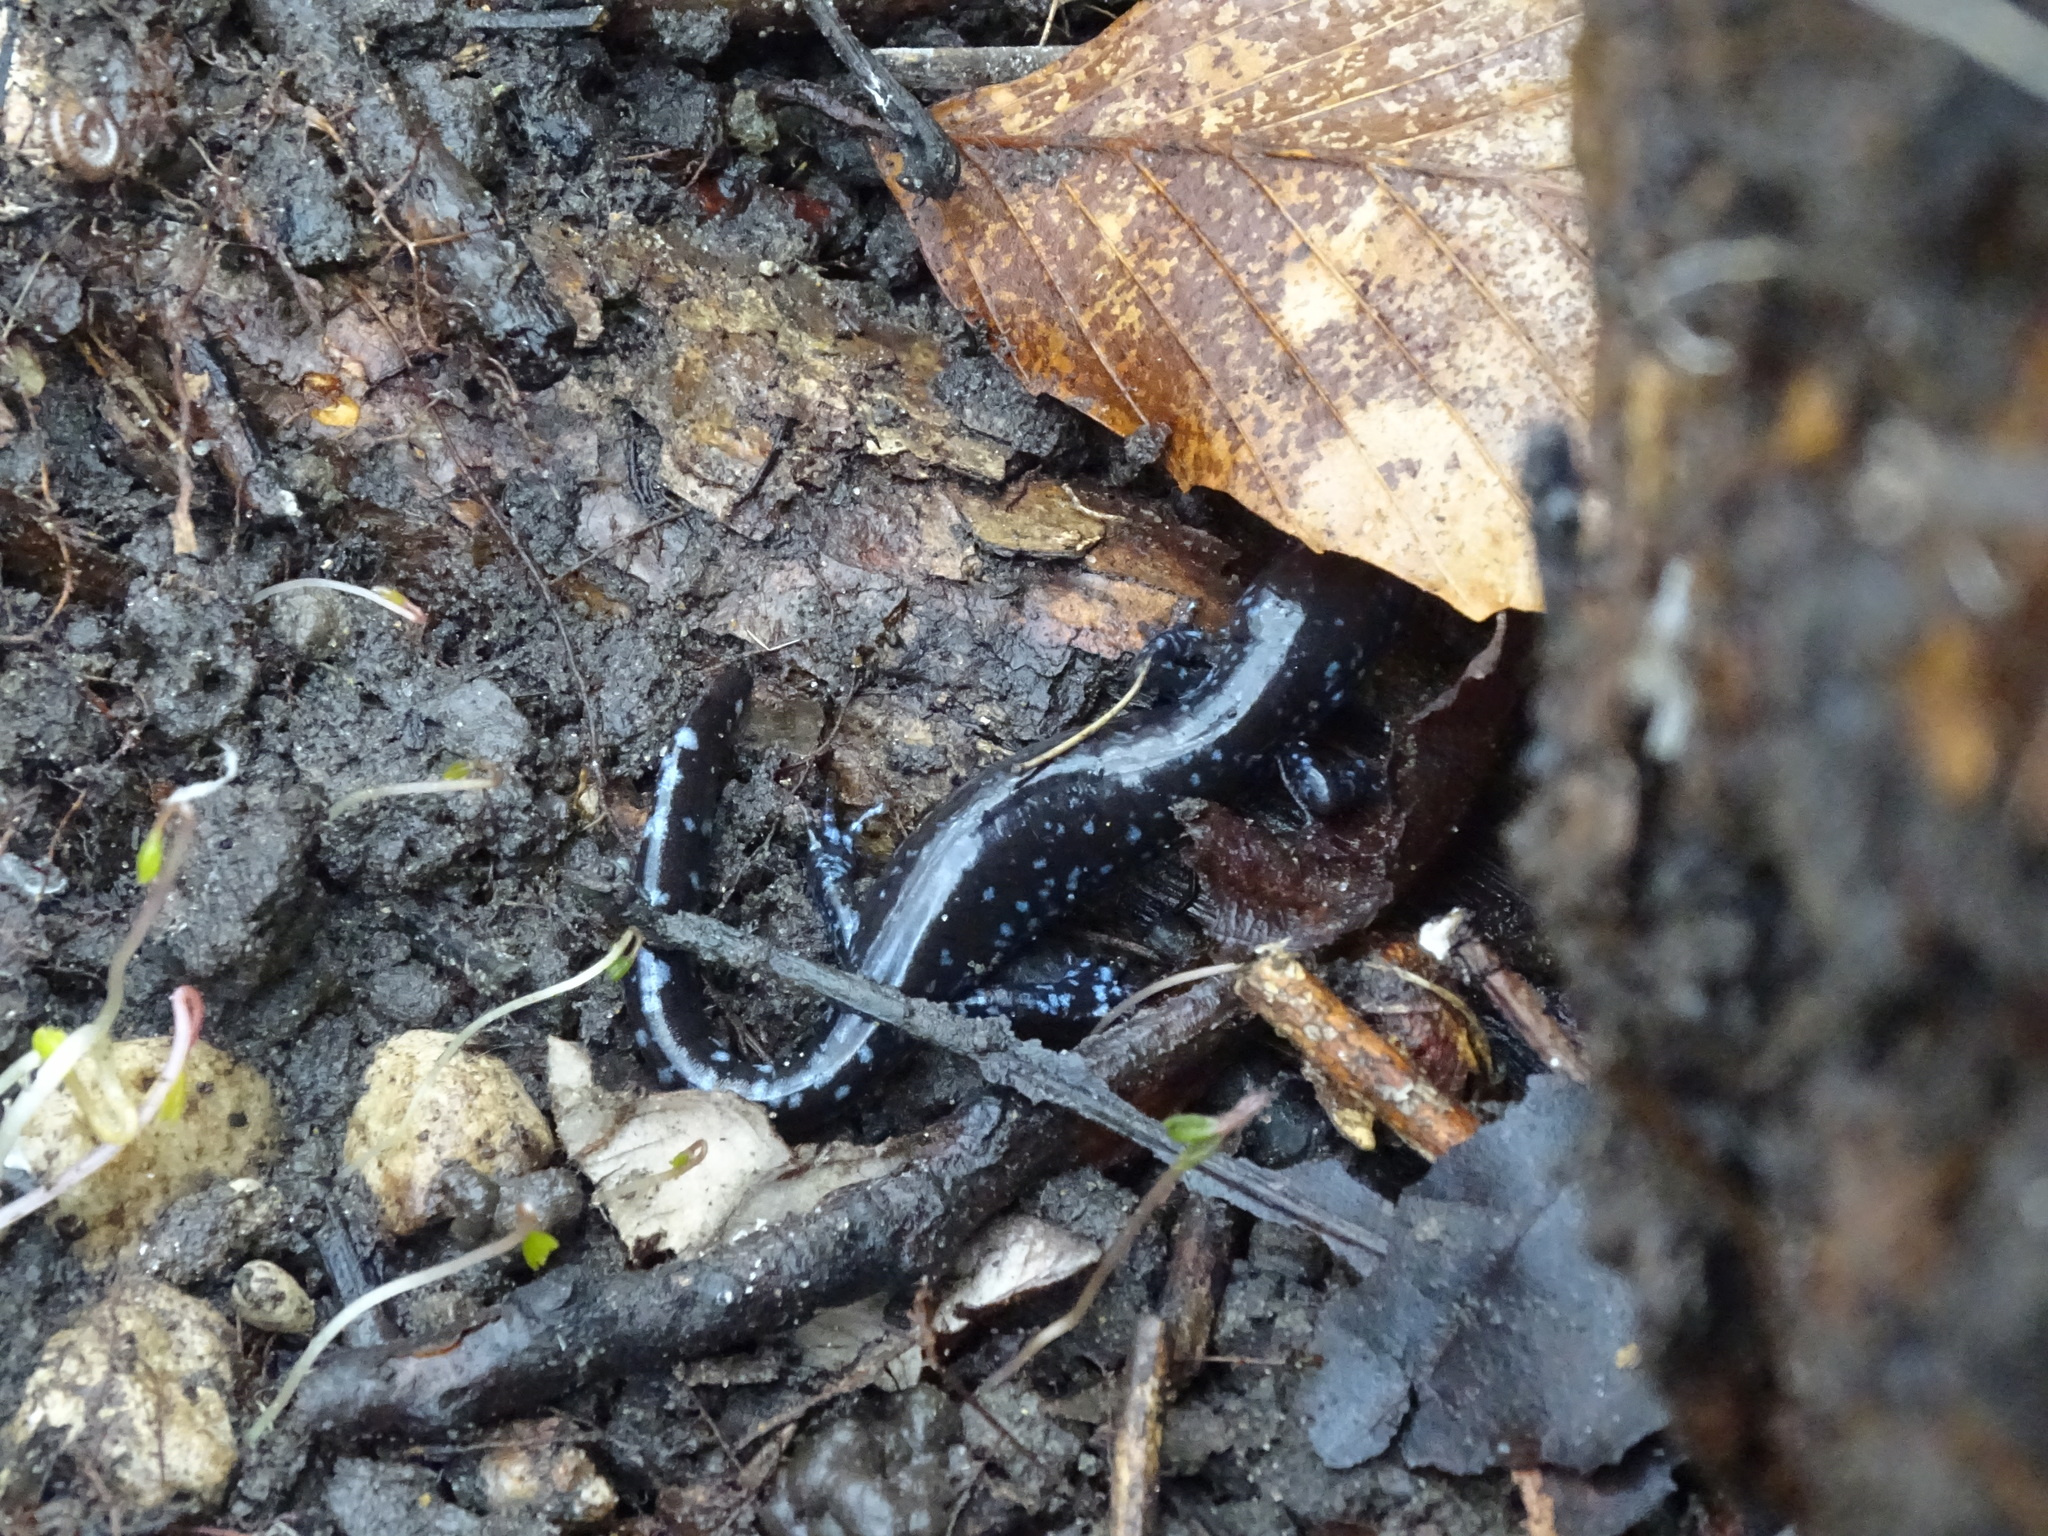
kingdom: Animalia
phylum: Chordata
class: Amphibia
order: Caudata
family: Ambystomatidae
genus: Ambystoma
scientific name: Ambystoma laterale
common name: Blue-spotted salamander
